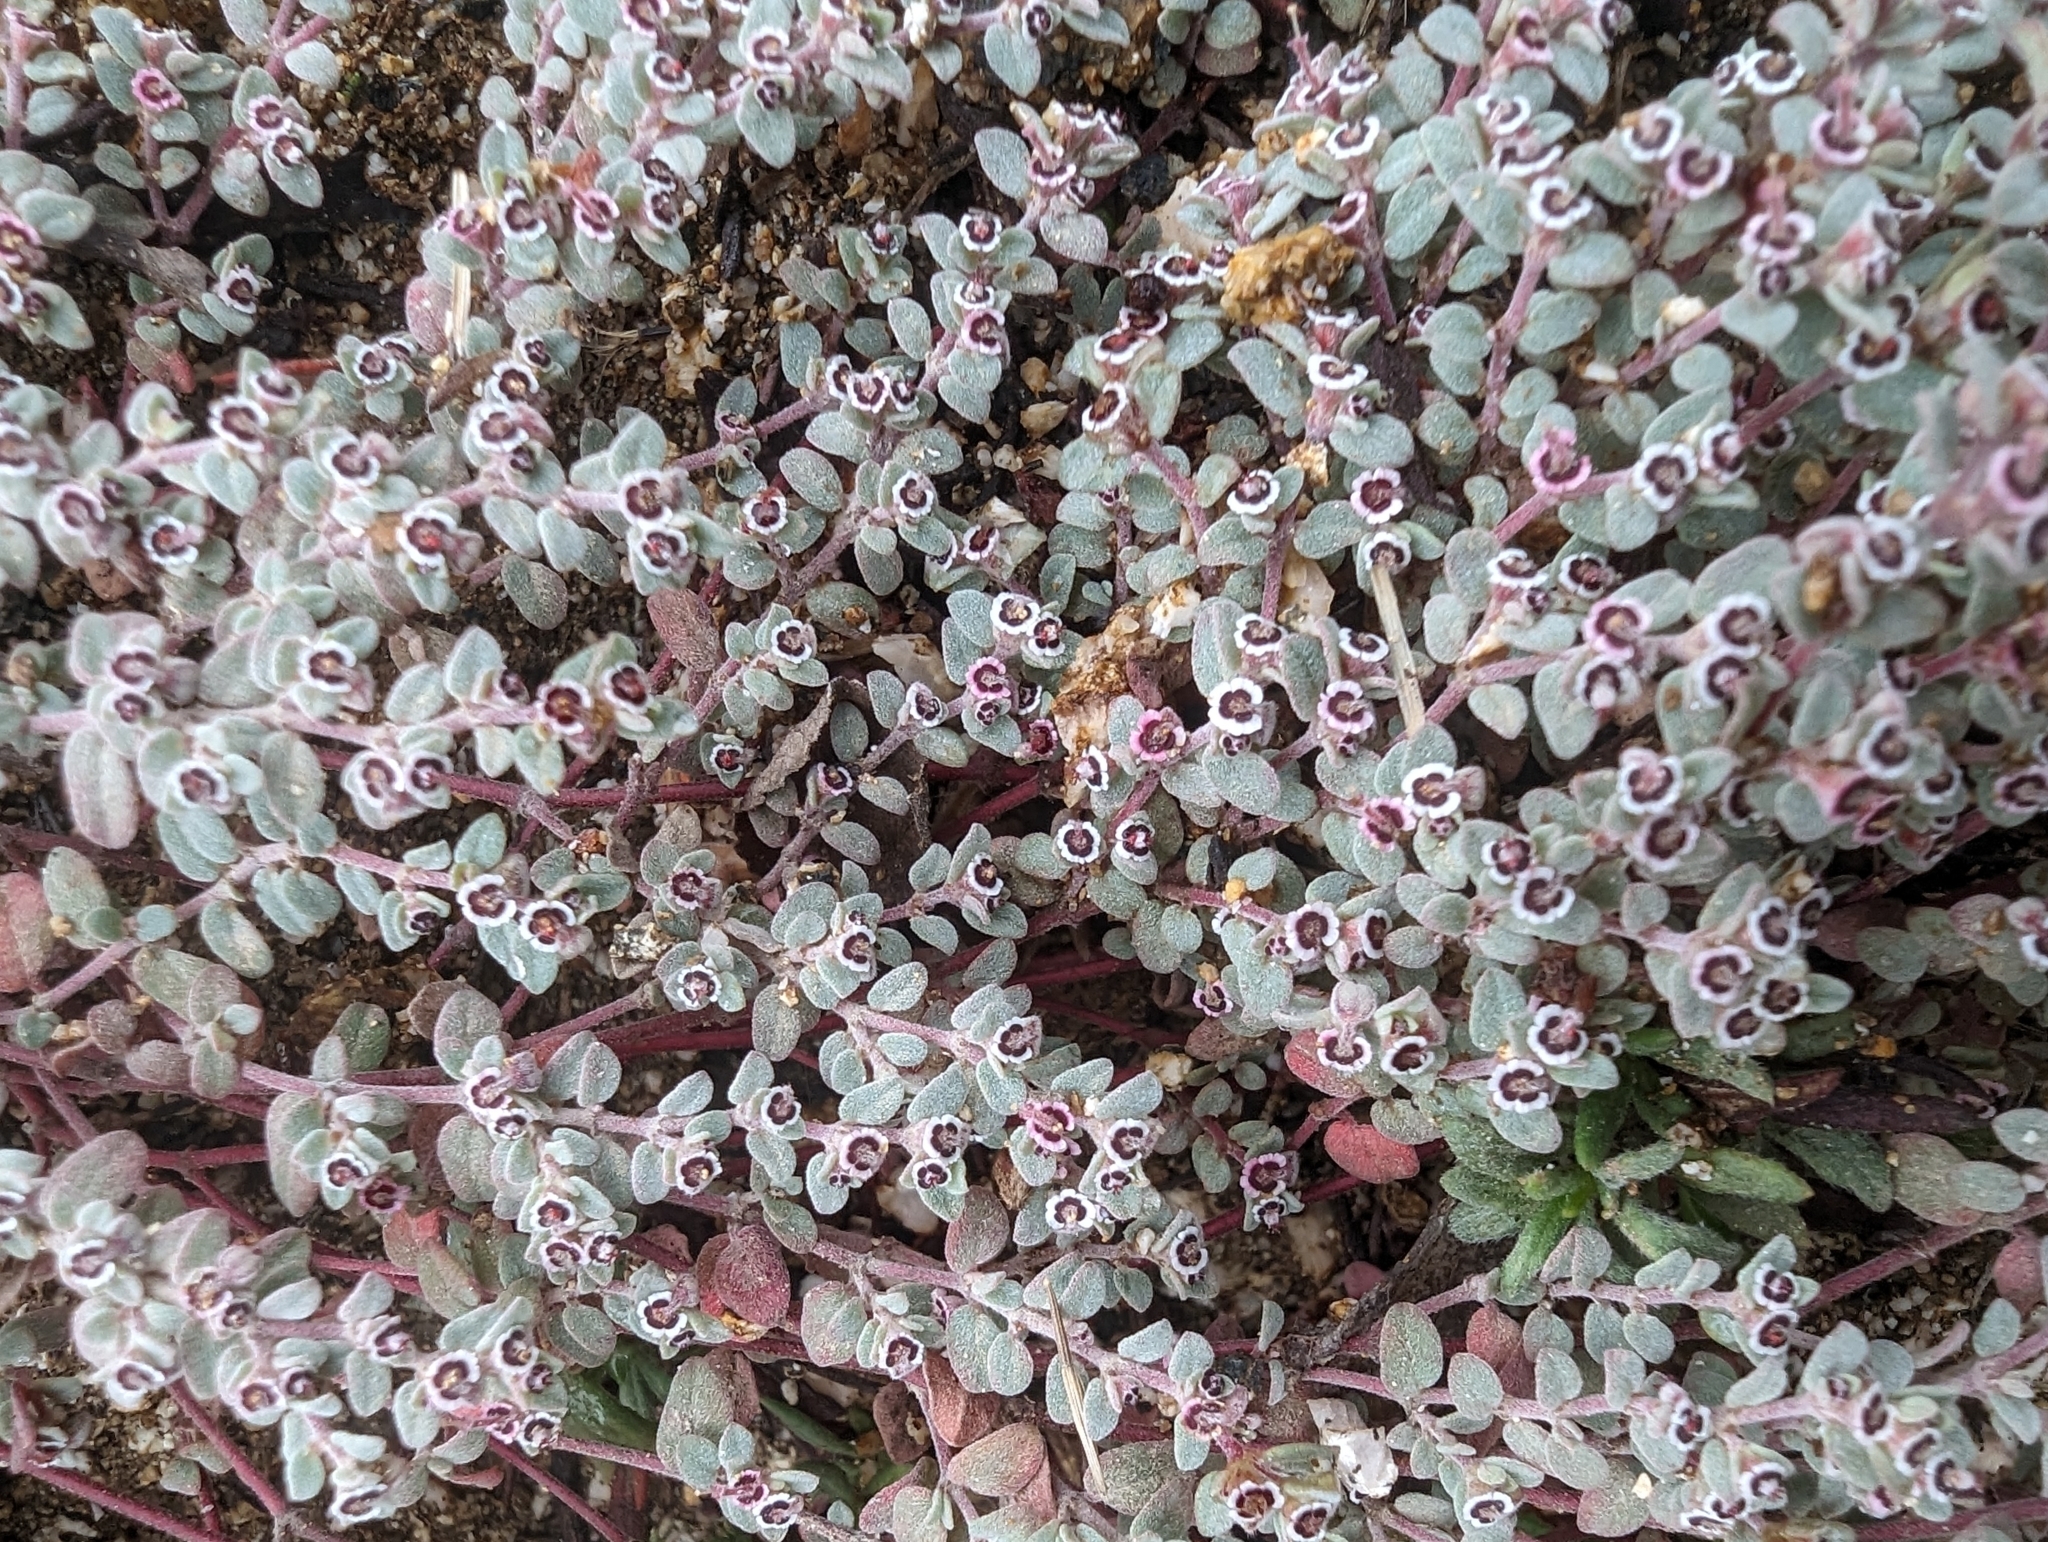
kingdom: Plantae
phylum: Tracheophyta
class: Magnoliopsida
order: Malpighiales
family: Euphorbiaceae
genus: Euphorbia
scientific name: Euphorbia melanadenia
